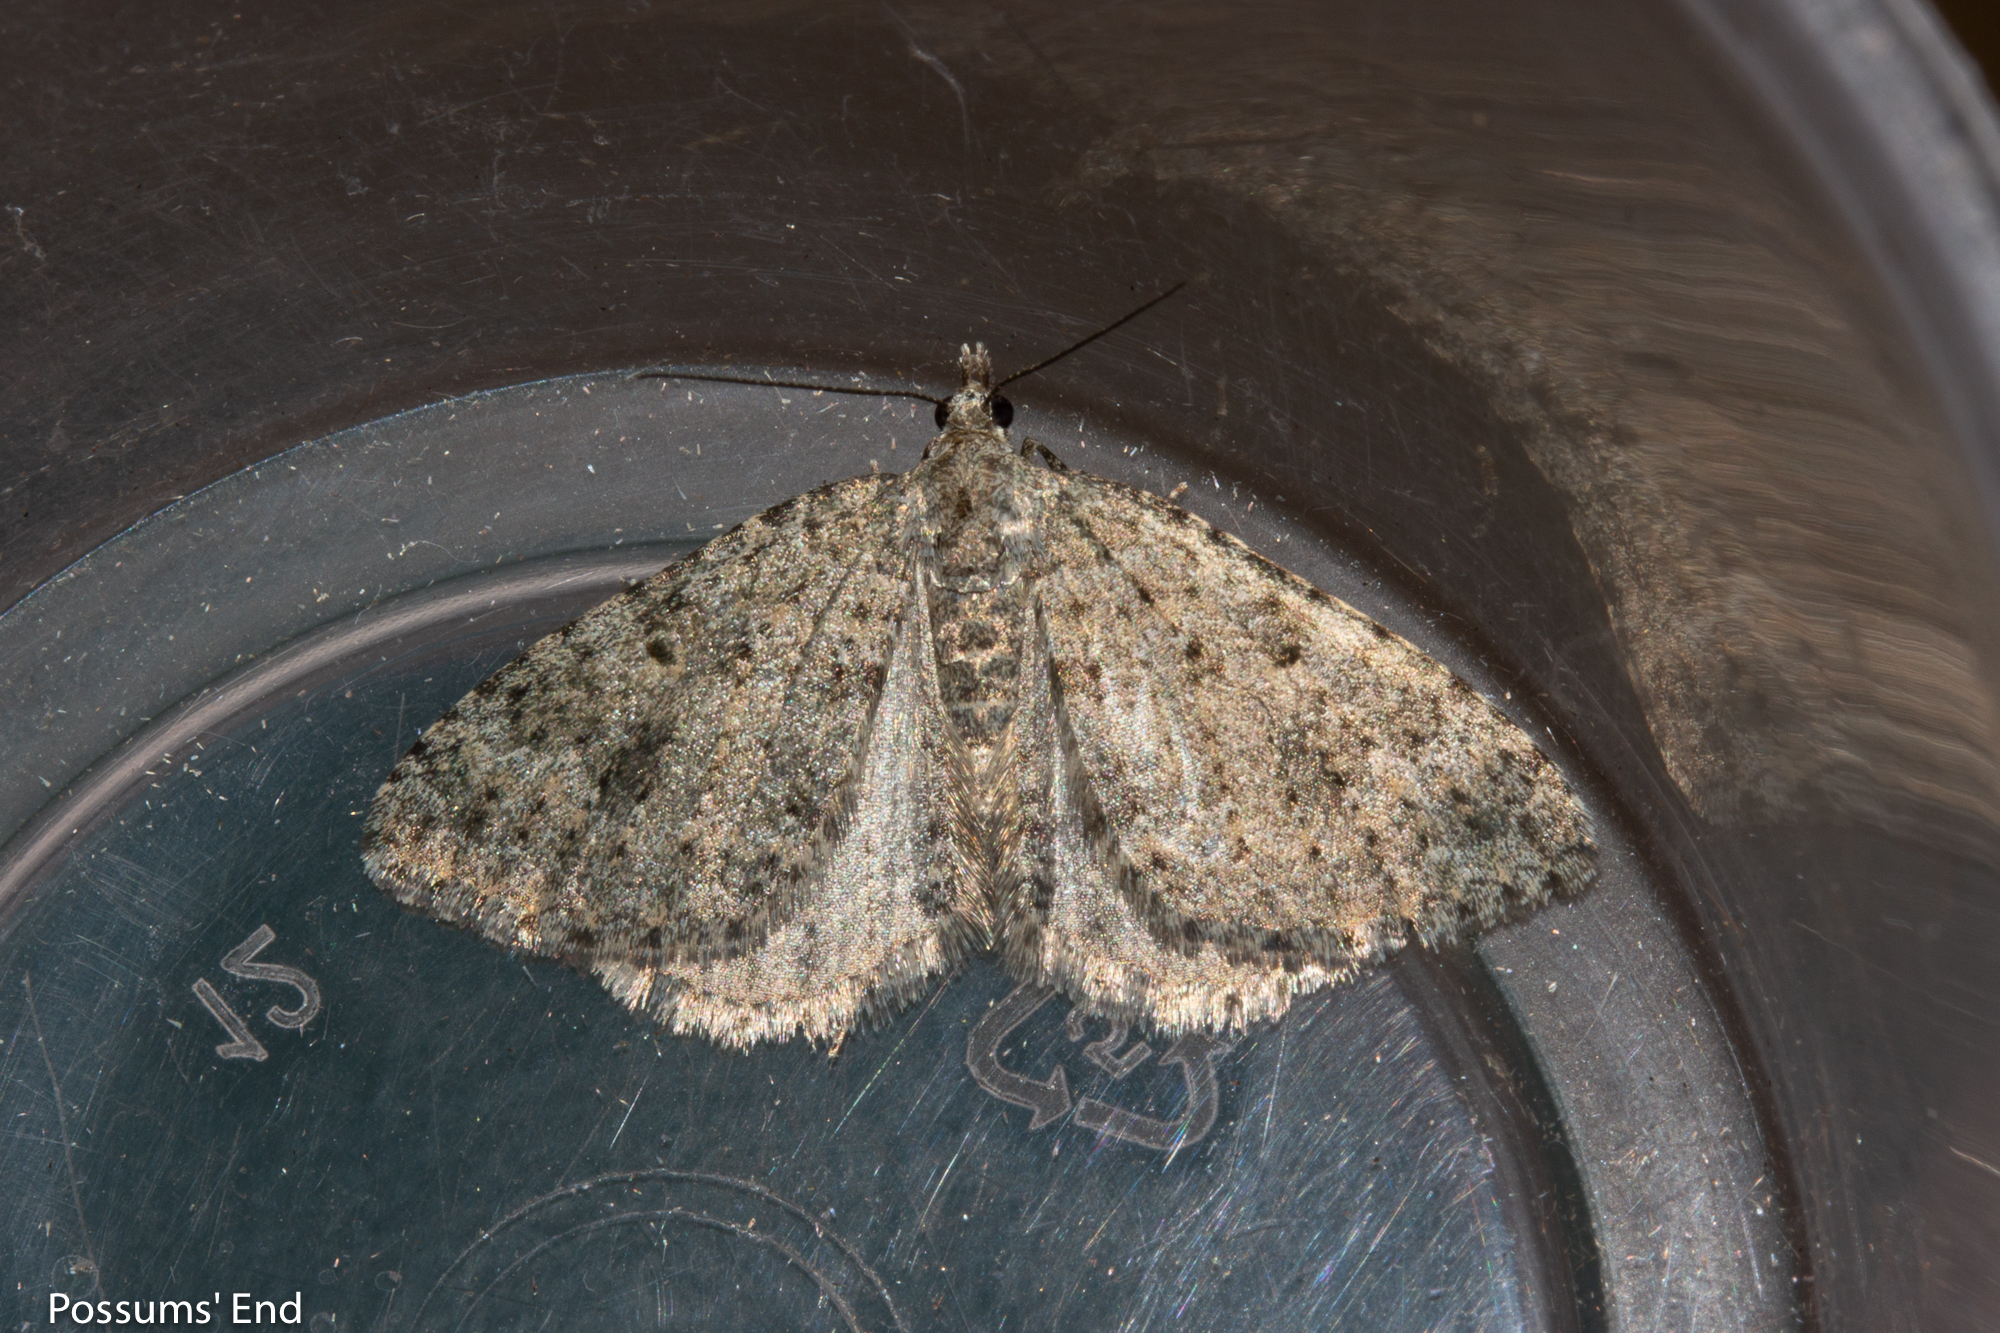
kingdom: Animalia
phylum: Arthropoda
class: Insecta
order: Lepidoptera
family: Geometridae
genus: Helastia
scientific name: Helastia corcularia
